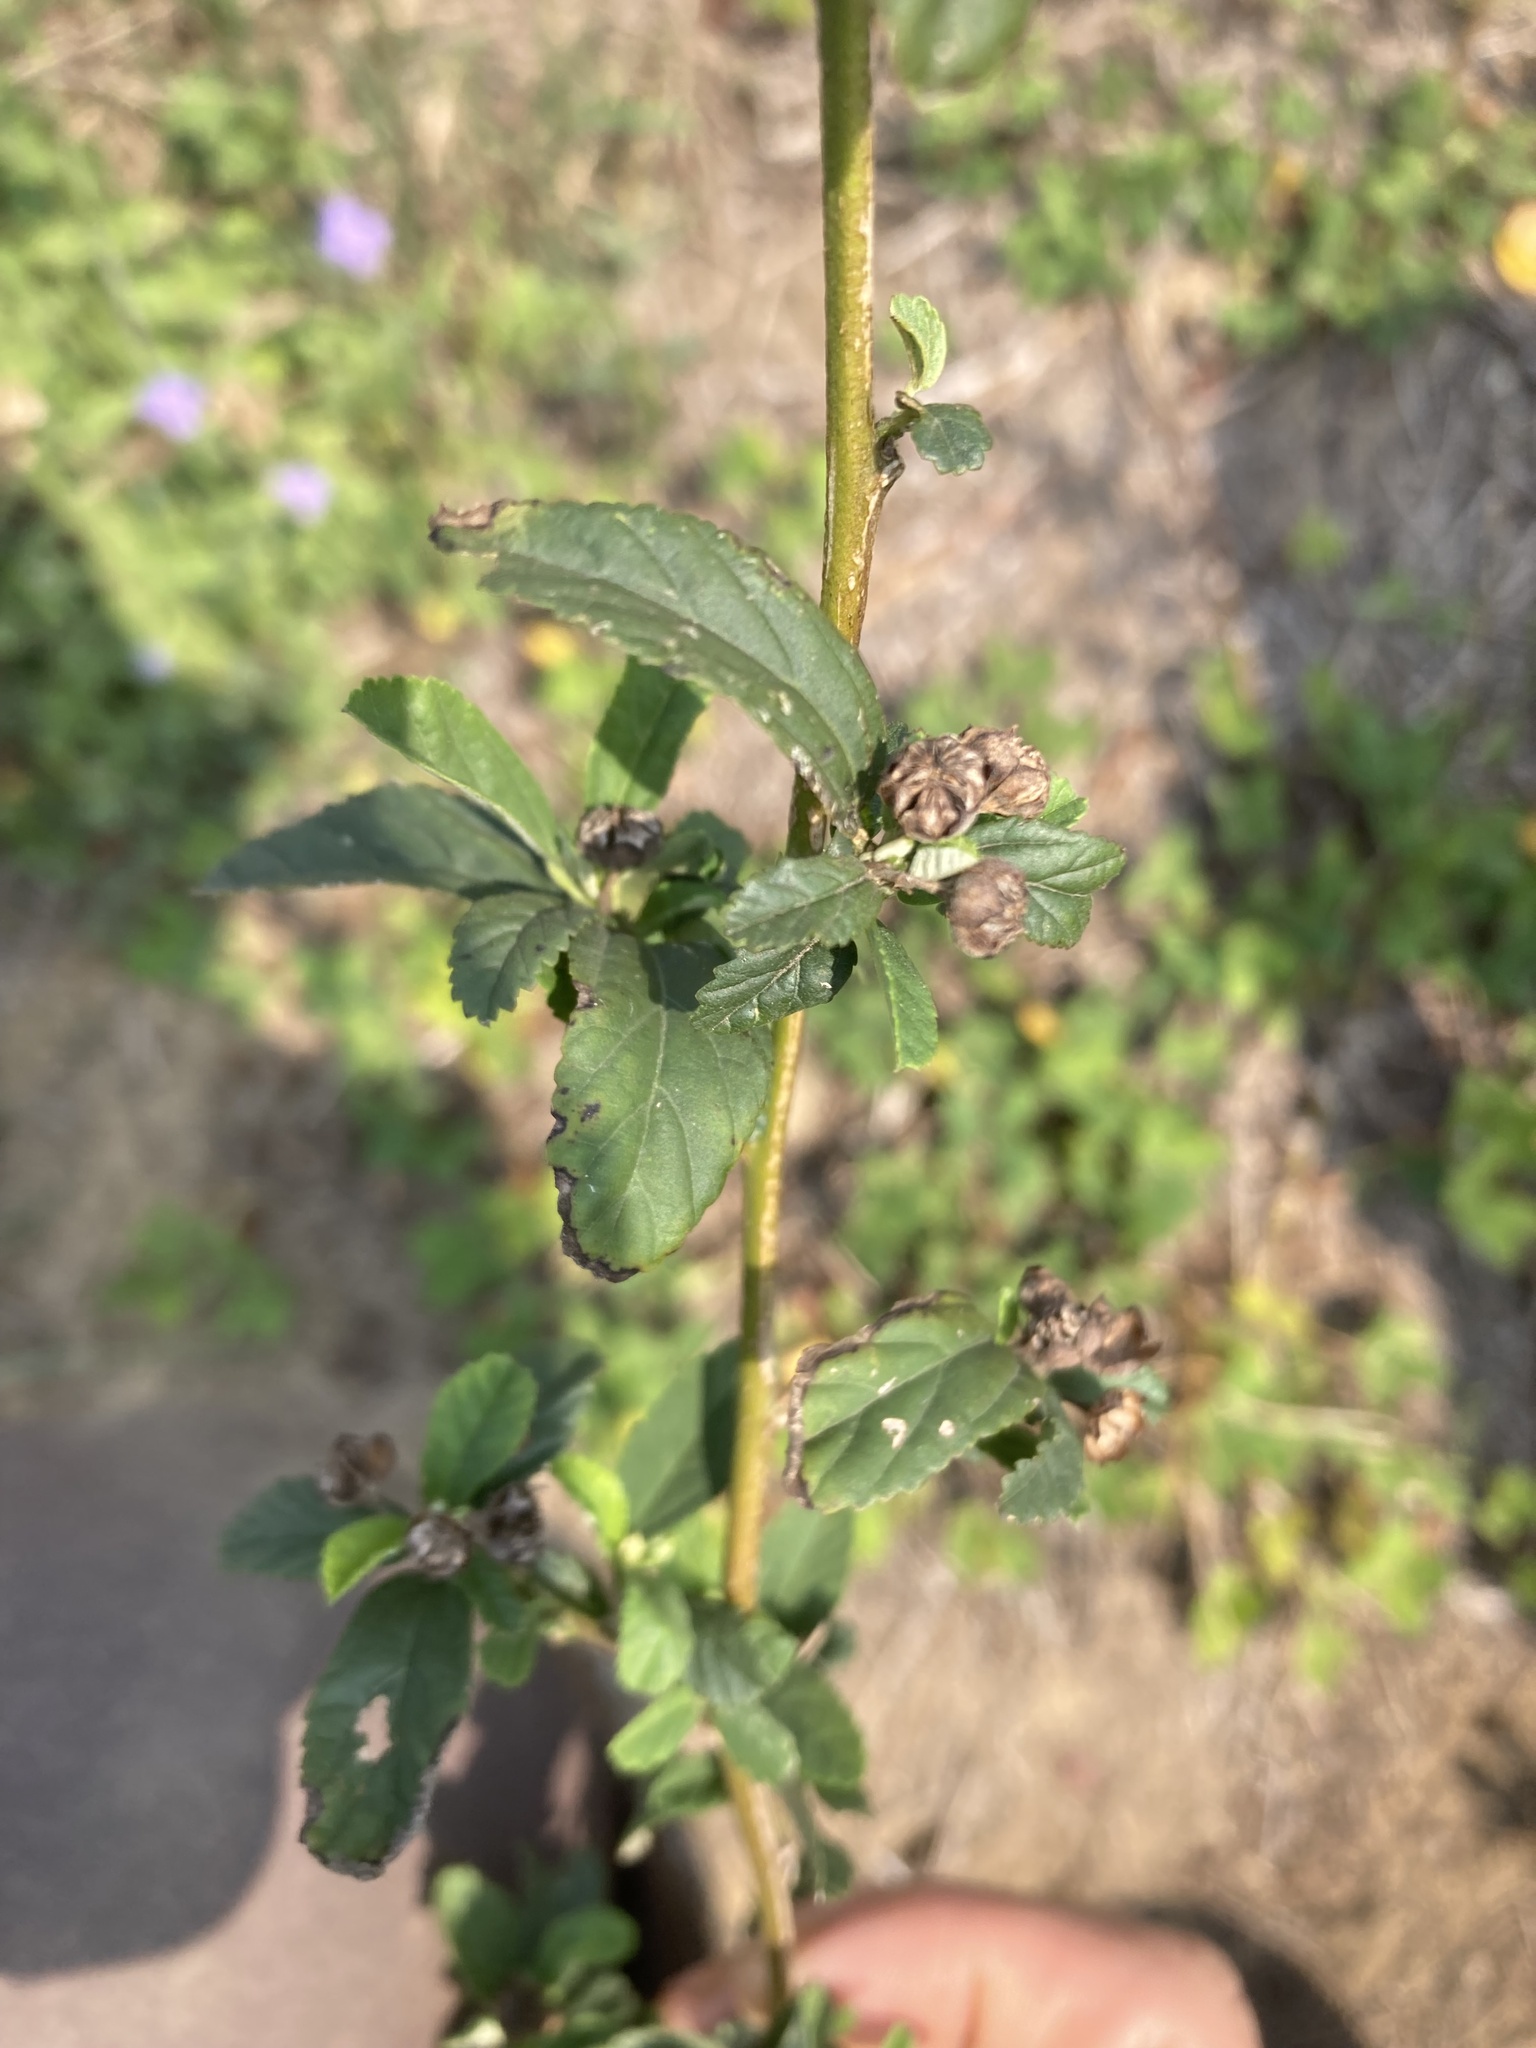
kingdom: Plantae
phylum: Tracheophyta
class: Magnoliopsida
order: Malvales
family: Malvaceae
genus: Sida
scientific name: Sida rhombifolia
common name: Queensland-hemp
